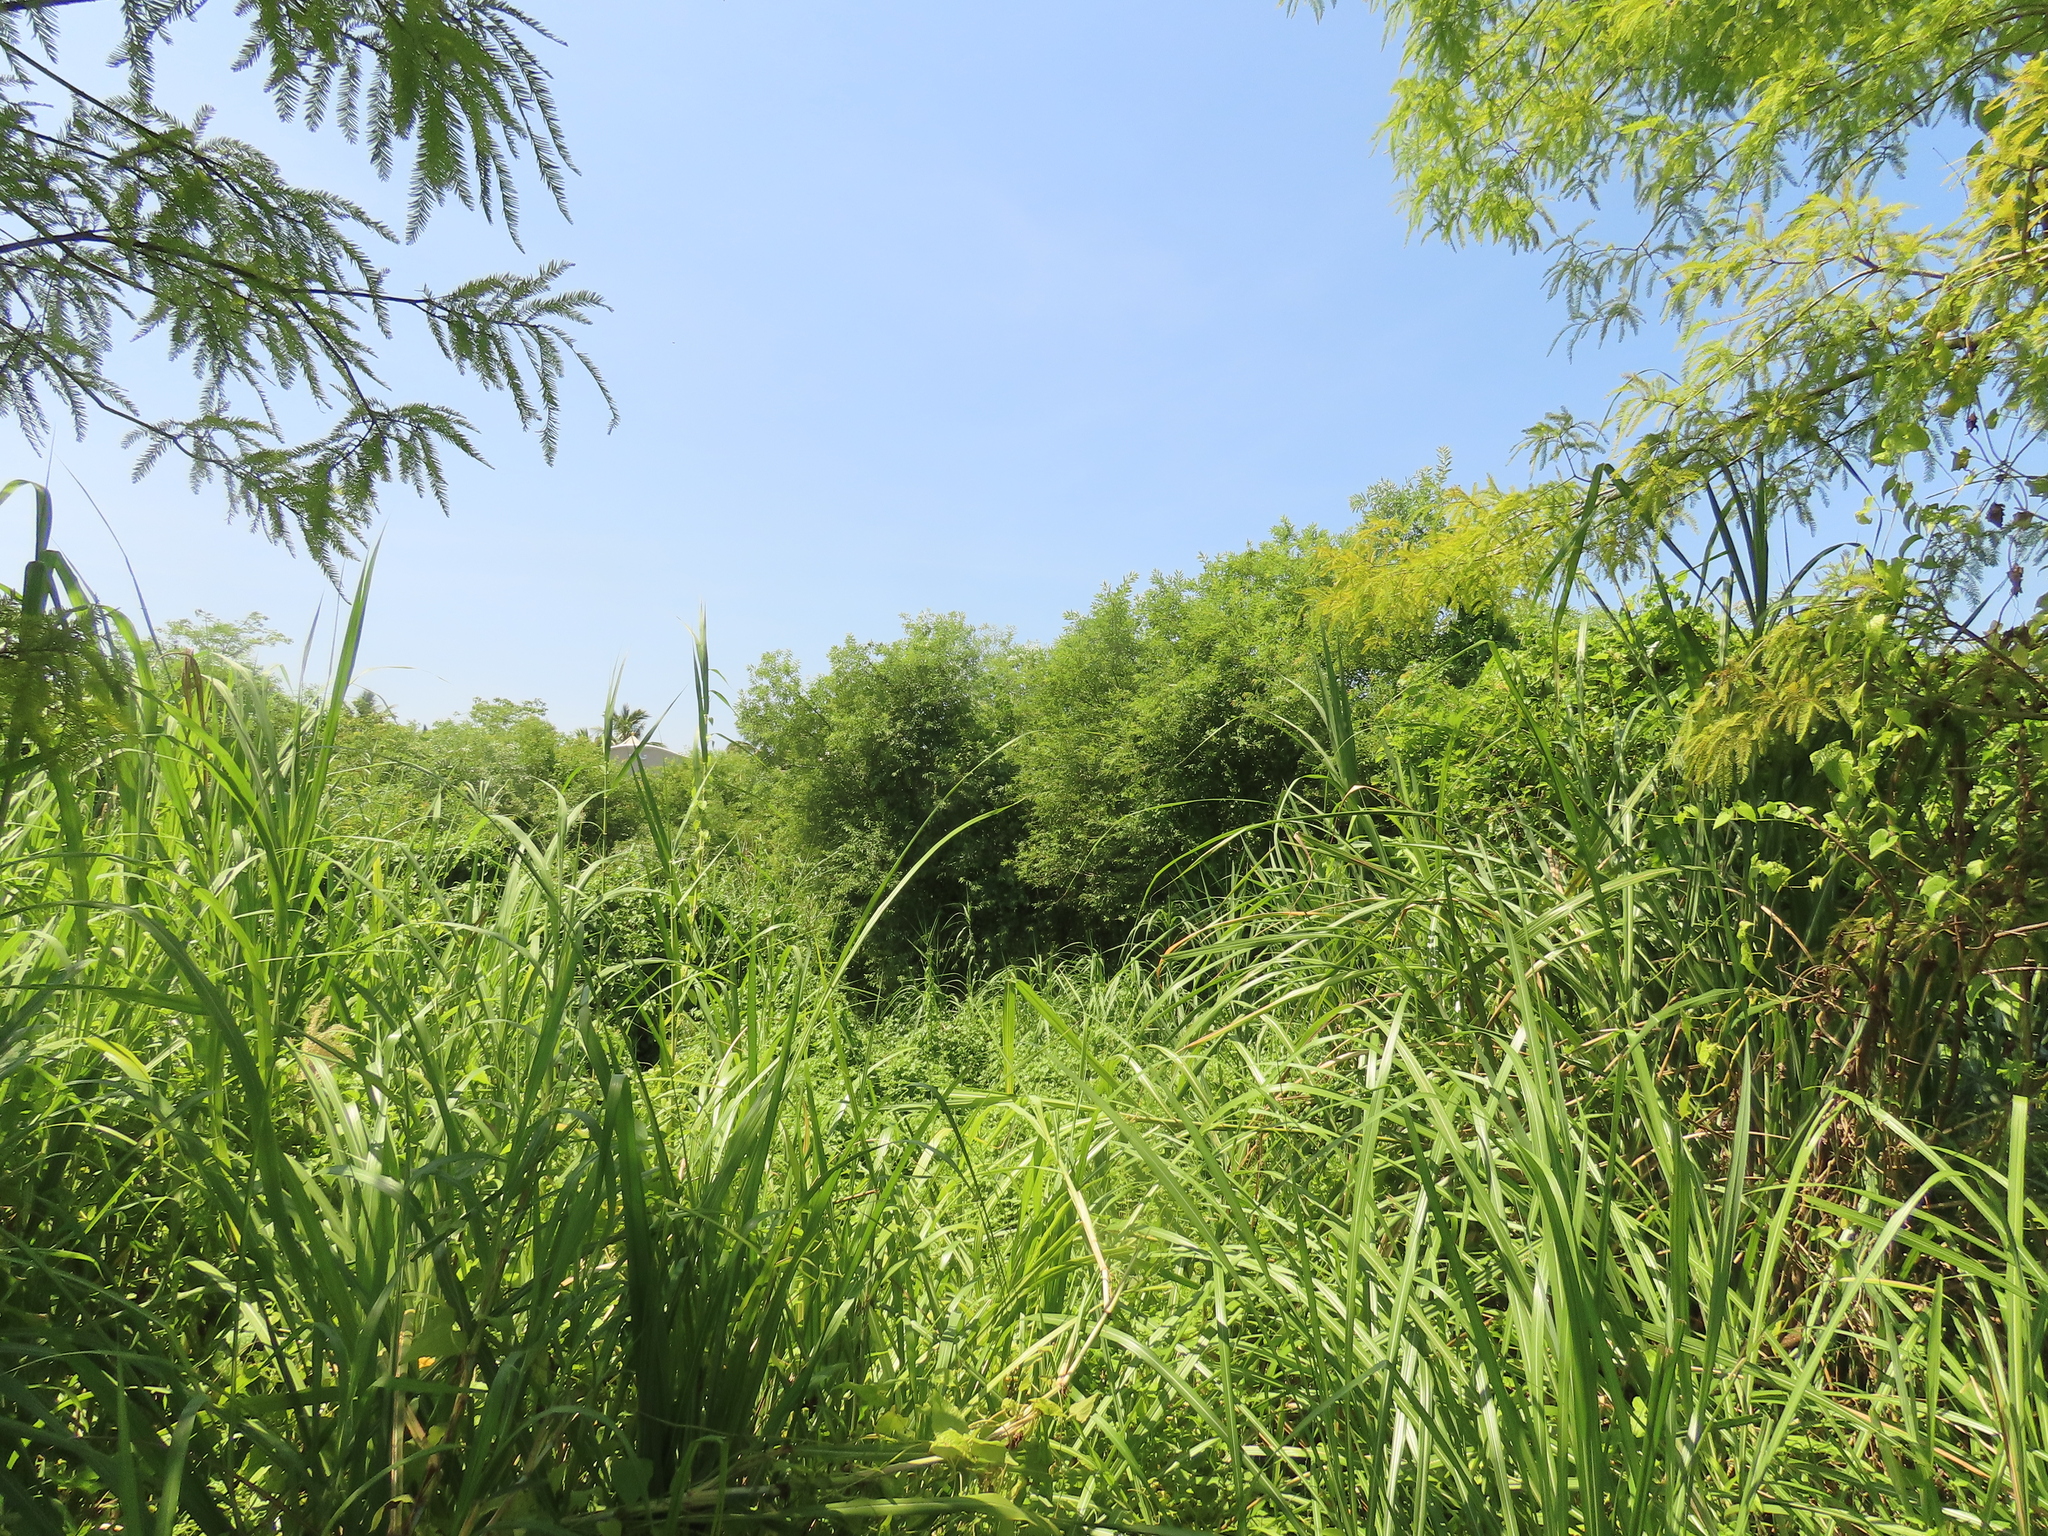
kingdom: Plantae
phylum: Tracheophyta
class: Magnoliopsida
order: Malpighiales
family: Salicaceae
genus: Salix
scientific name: Salix mesnyi
